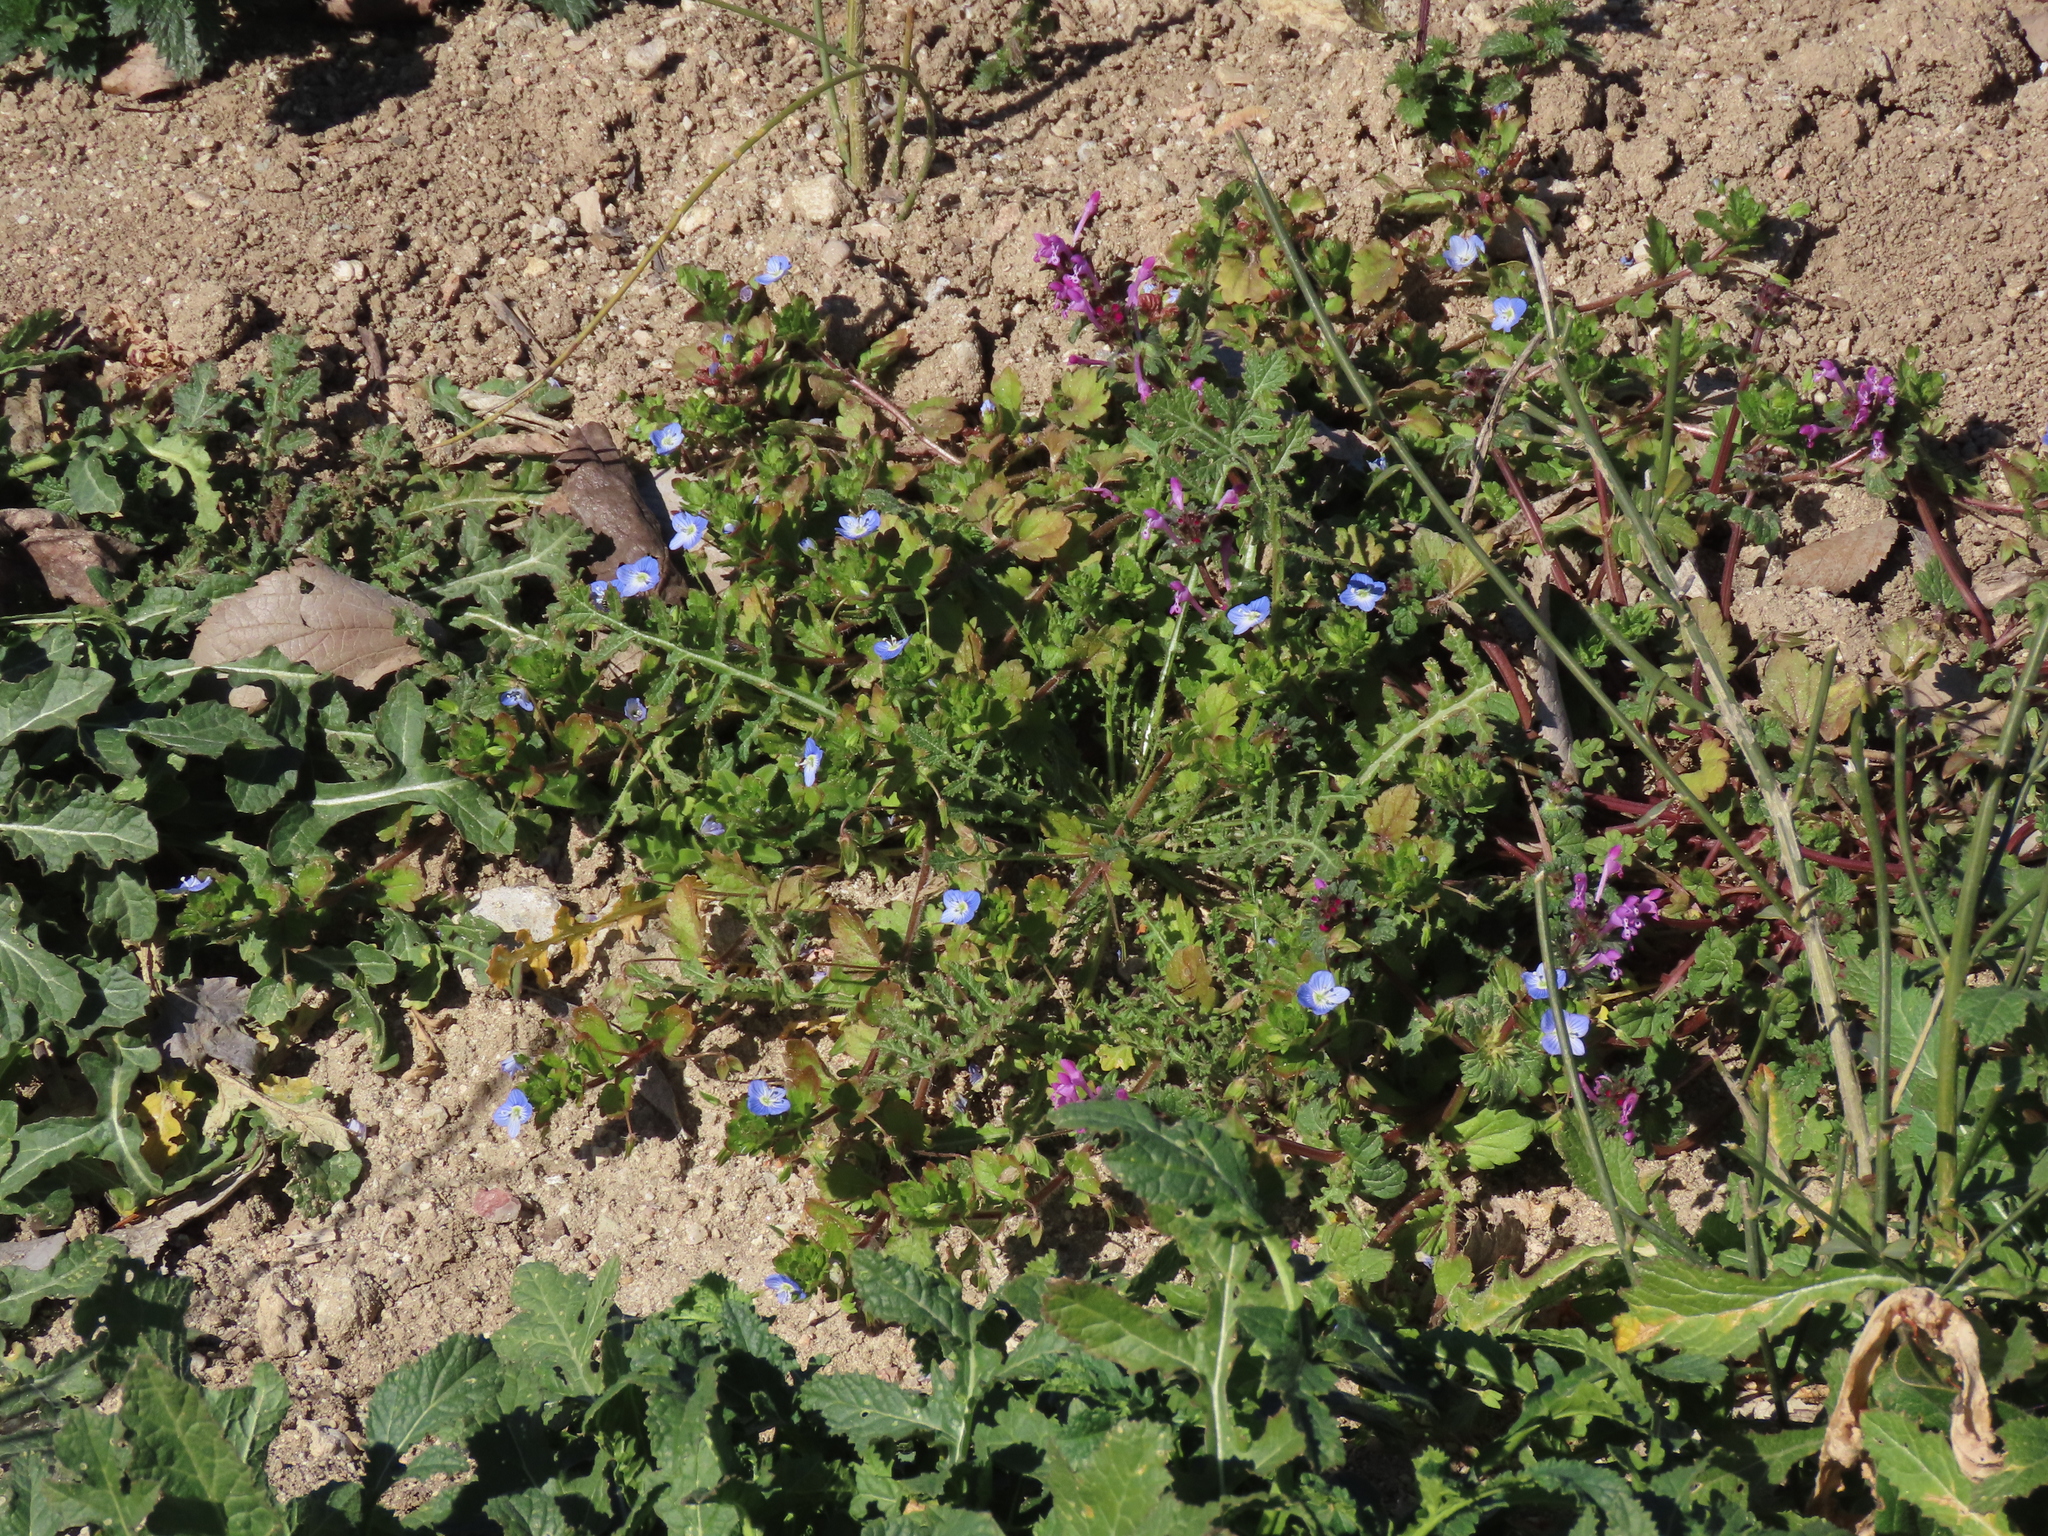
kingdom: Plantae
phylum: Tracheophyta
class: Magnoliopsida
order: Lamiales
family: Lamiaceae
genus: Lamium
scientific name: Lamium amplexicaule
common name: Henbit dead-nettle
